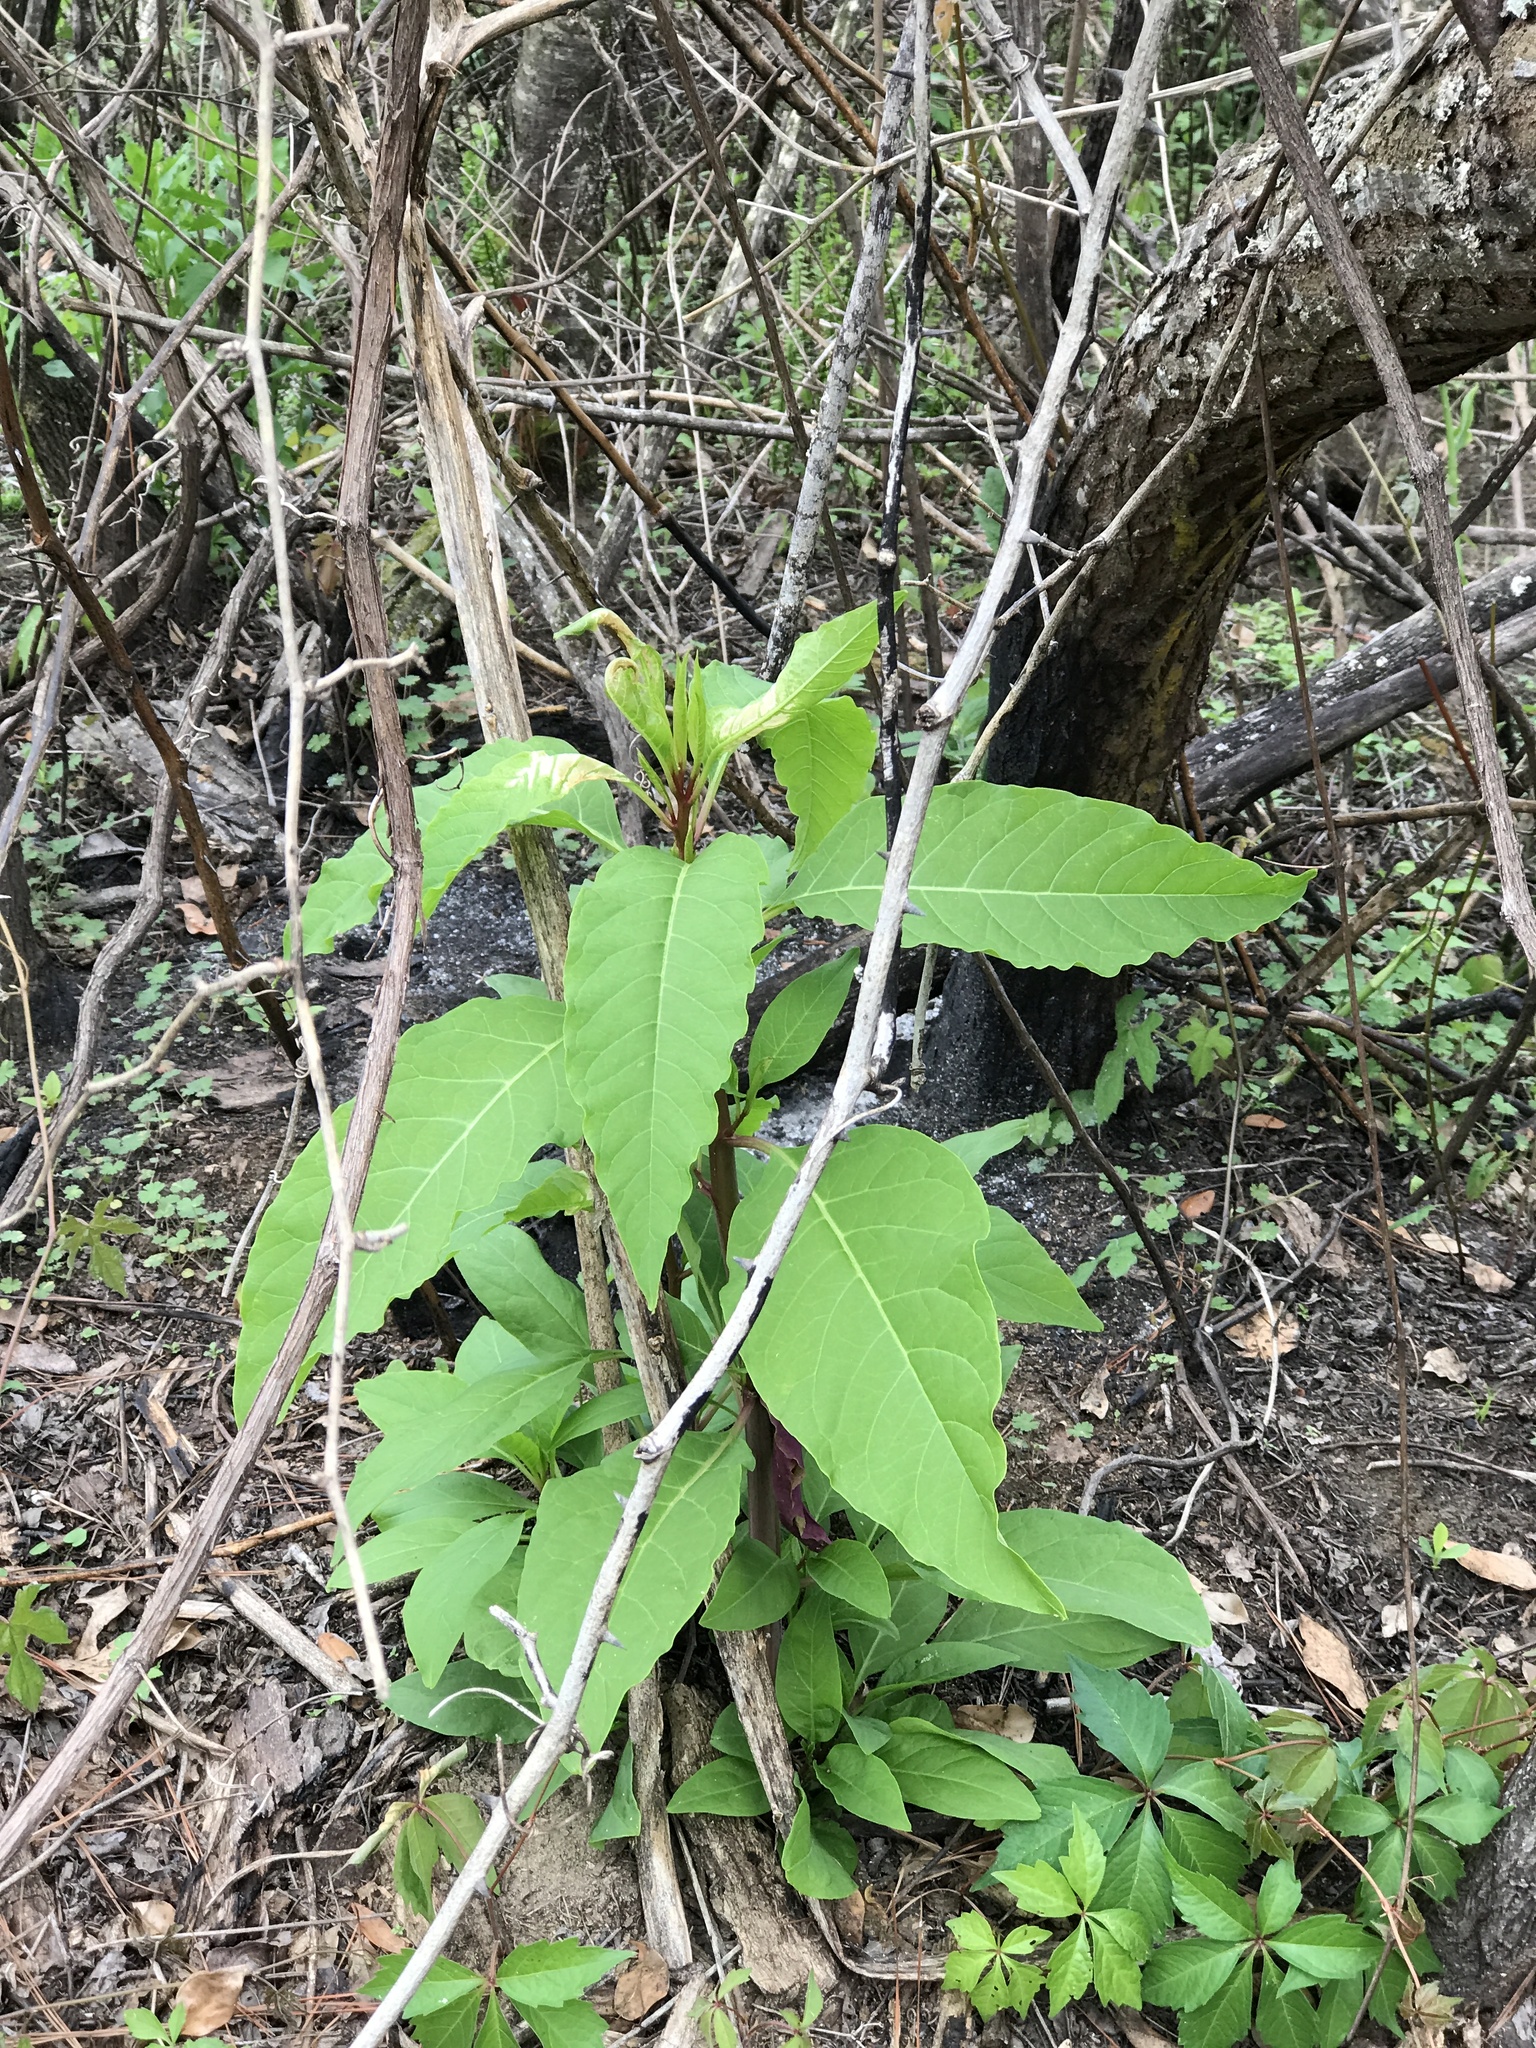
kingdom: Plantae
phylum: Tracheophyta
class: Magnoliopsida
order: Caryophyllales
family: Phytolaccaceae
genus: Phytolacca
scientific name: Phytolacca americana
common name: American pokeweed
